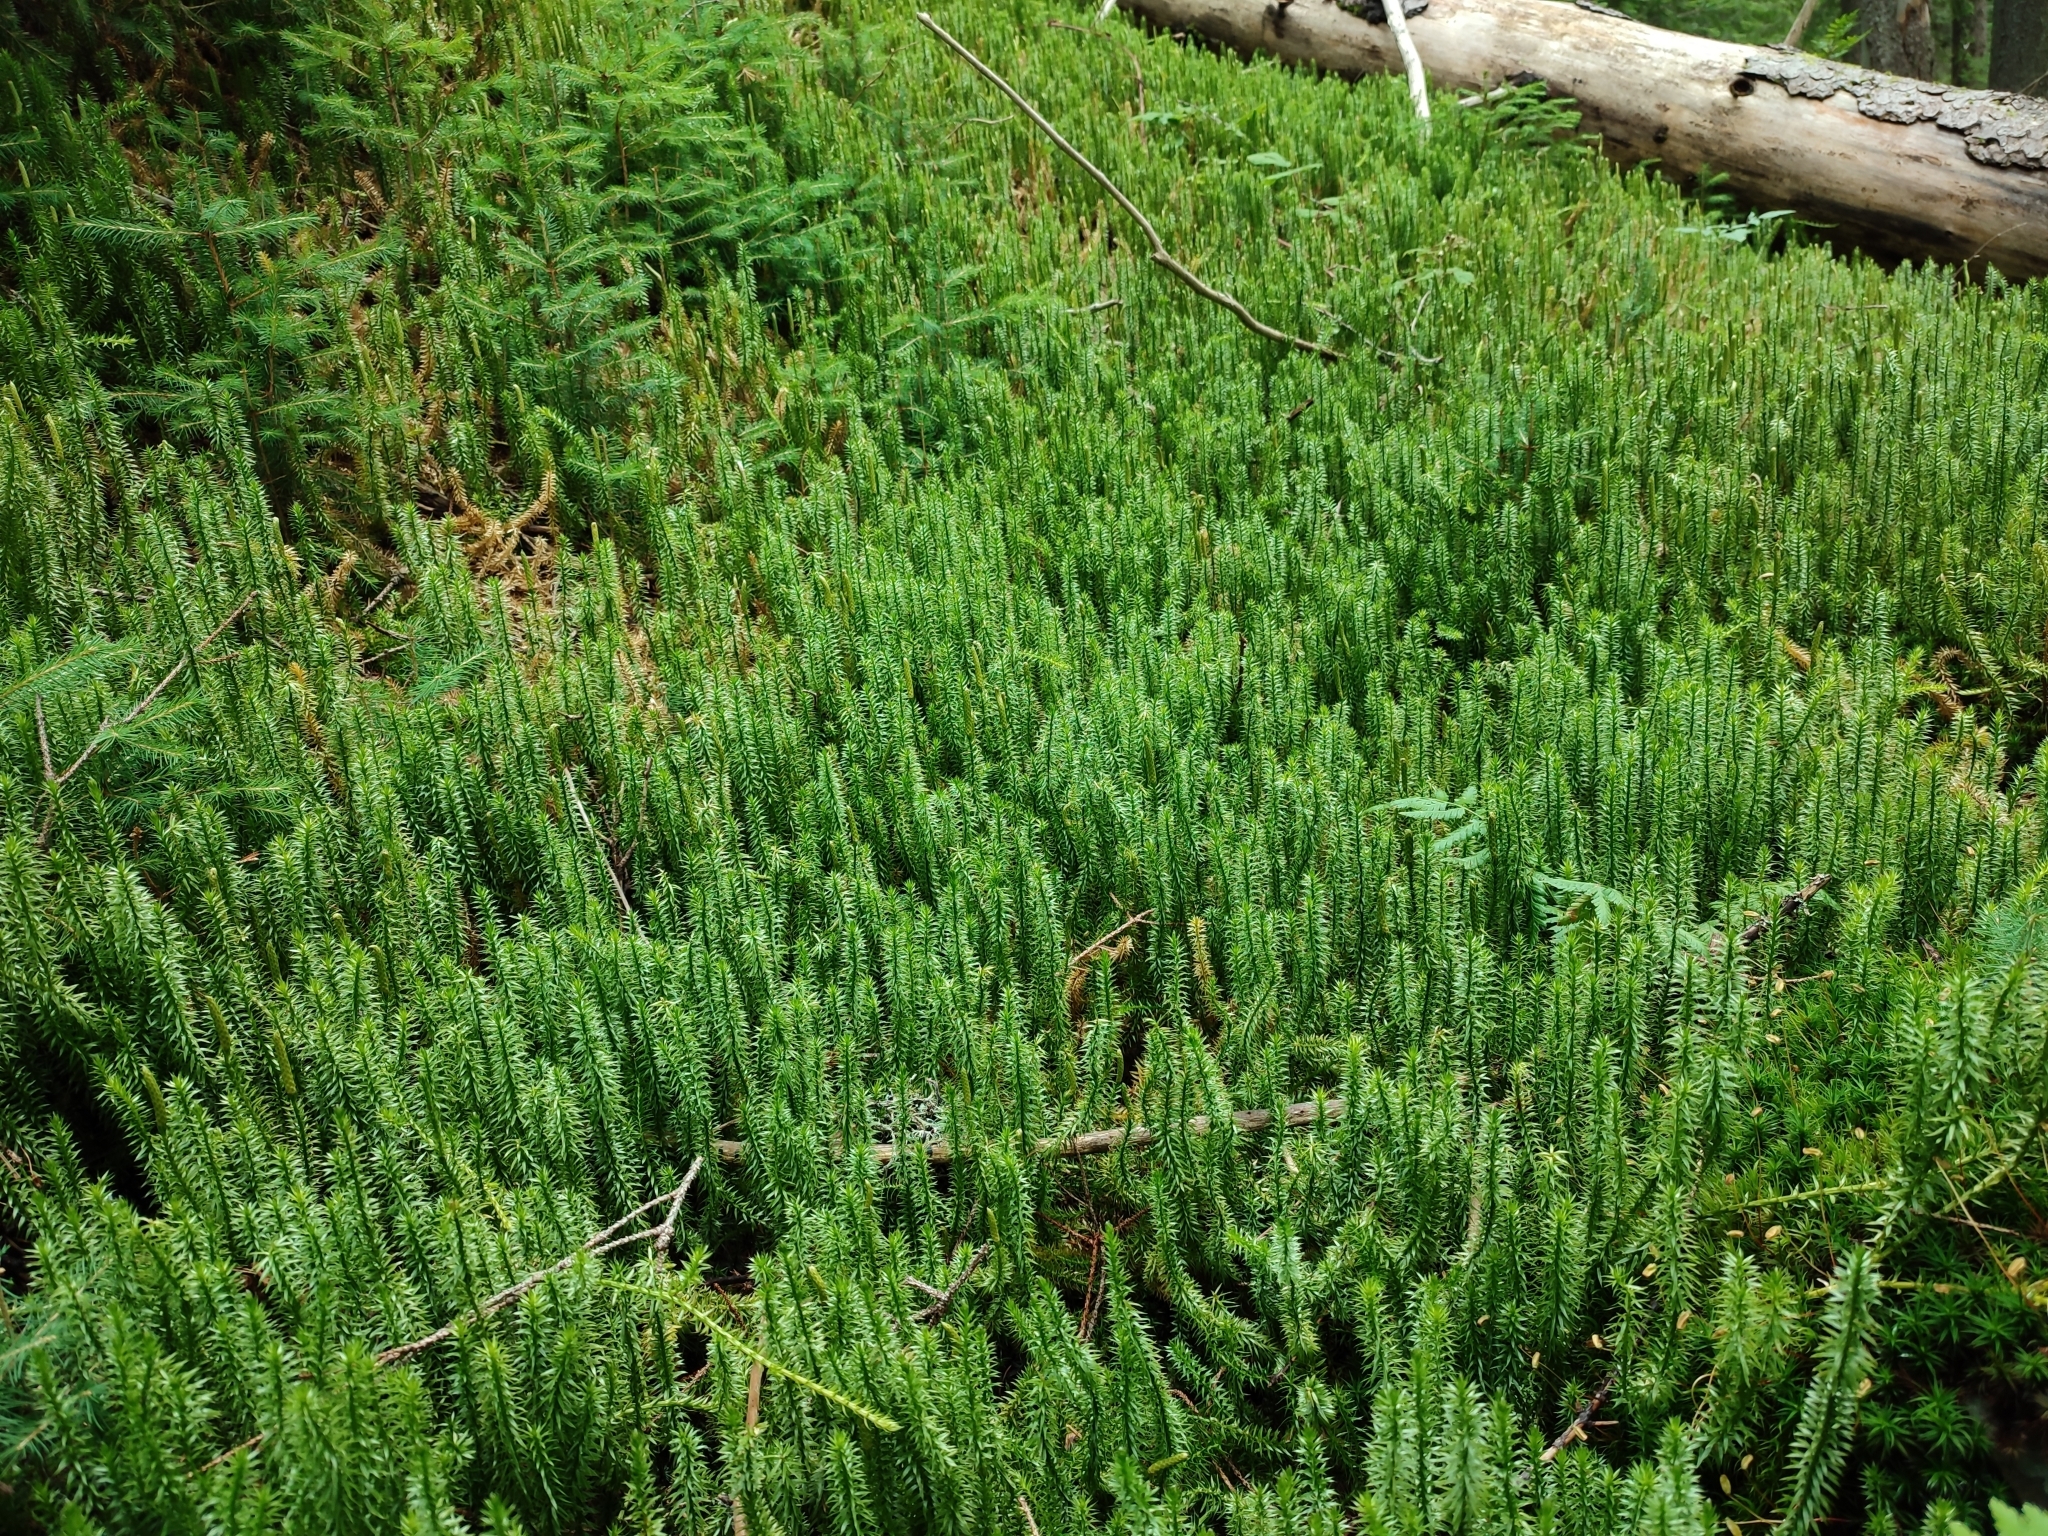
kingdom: Plantae
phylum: Tracheophyta
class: Lycopodiopsida
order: Lycopodiales
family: Lycopodiaceae
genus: Spinulum
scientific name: Spinulum annotinum
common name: Interrupted club-moss
